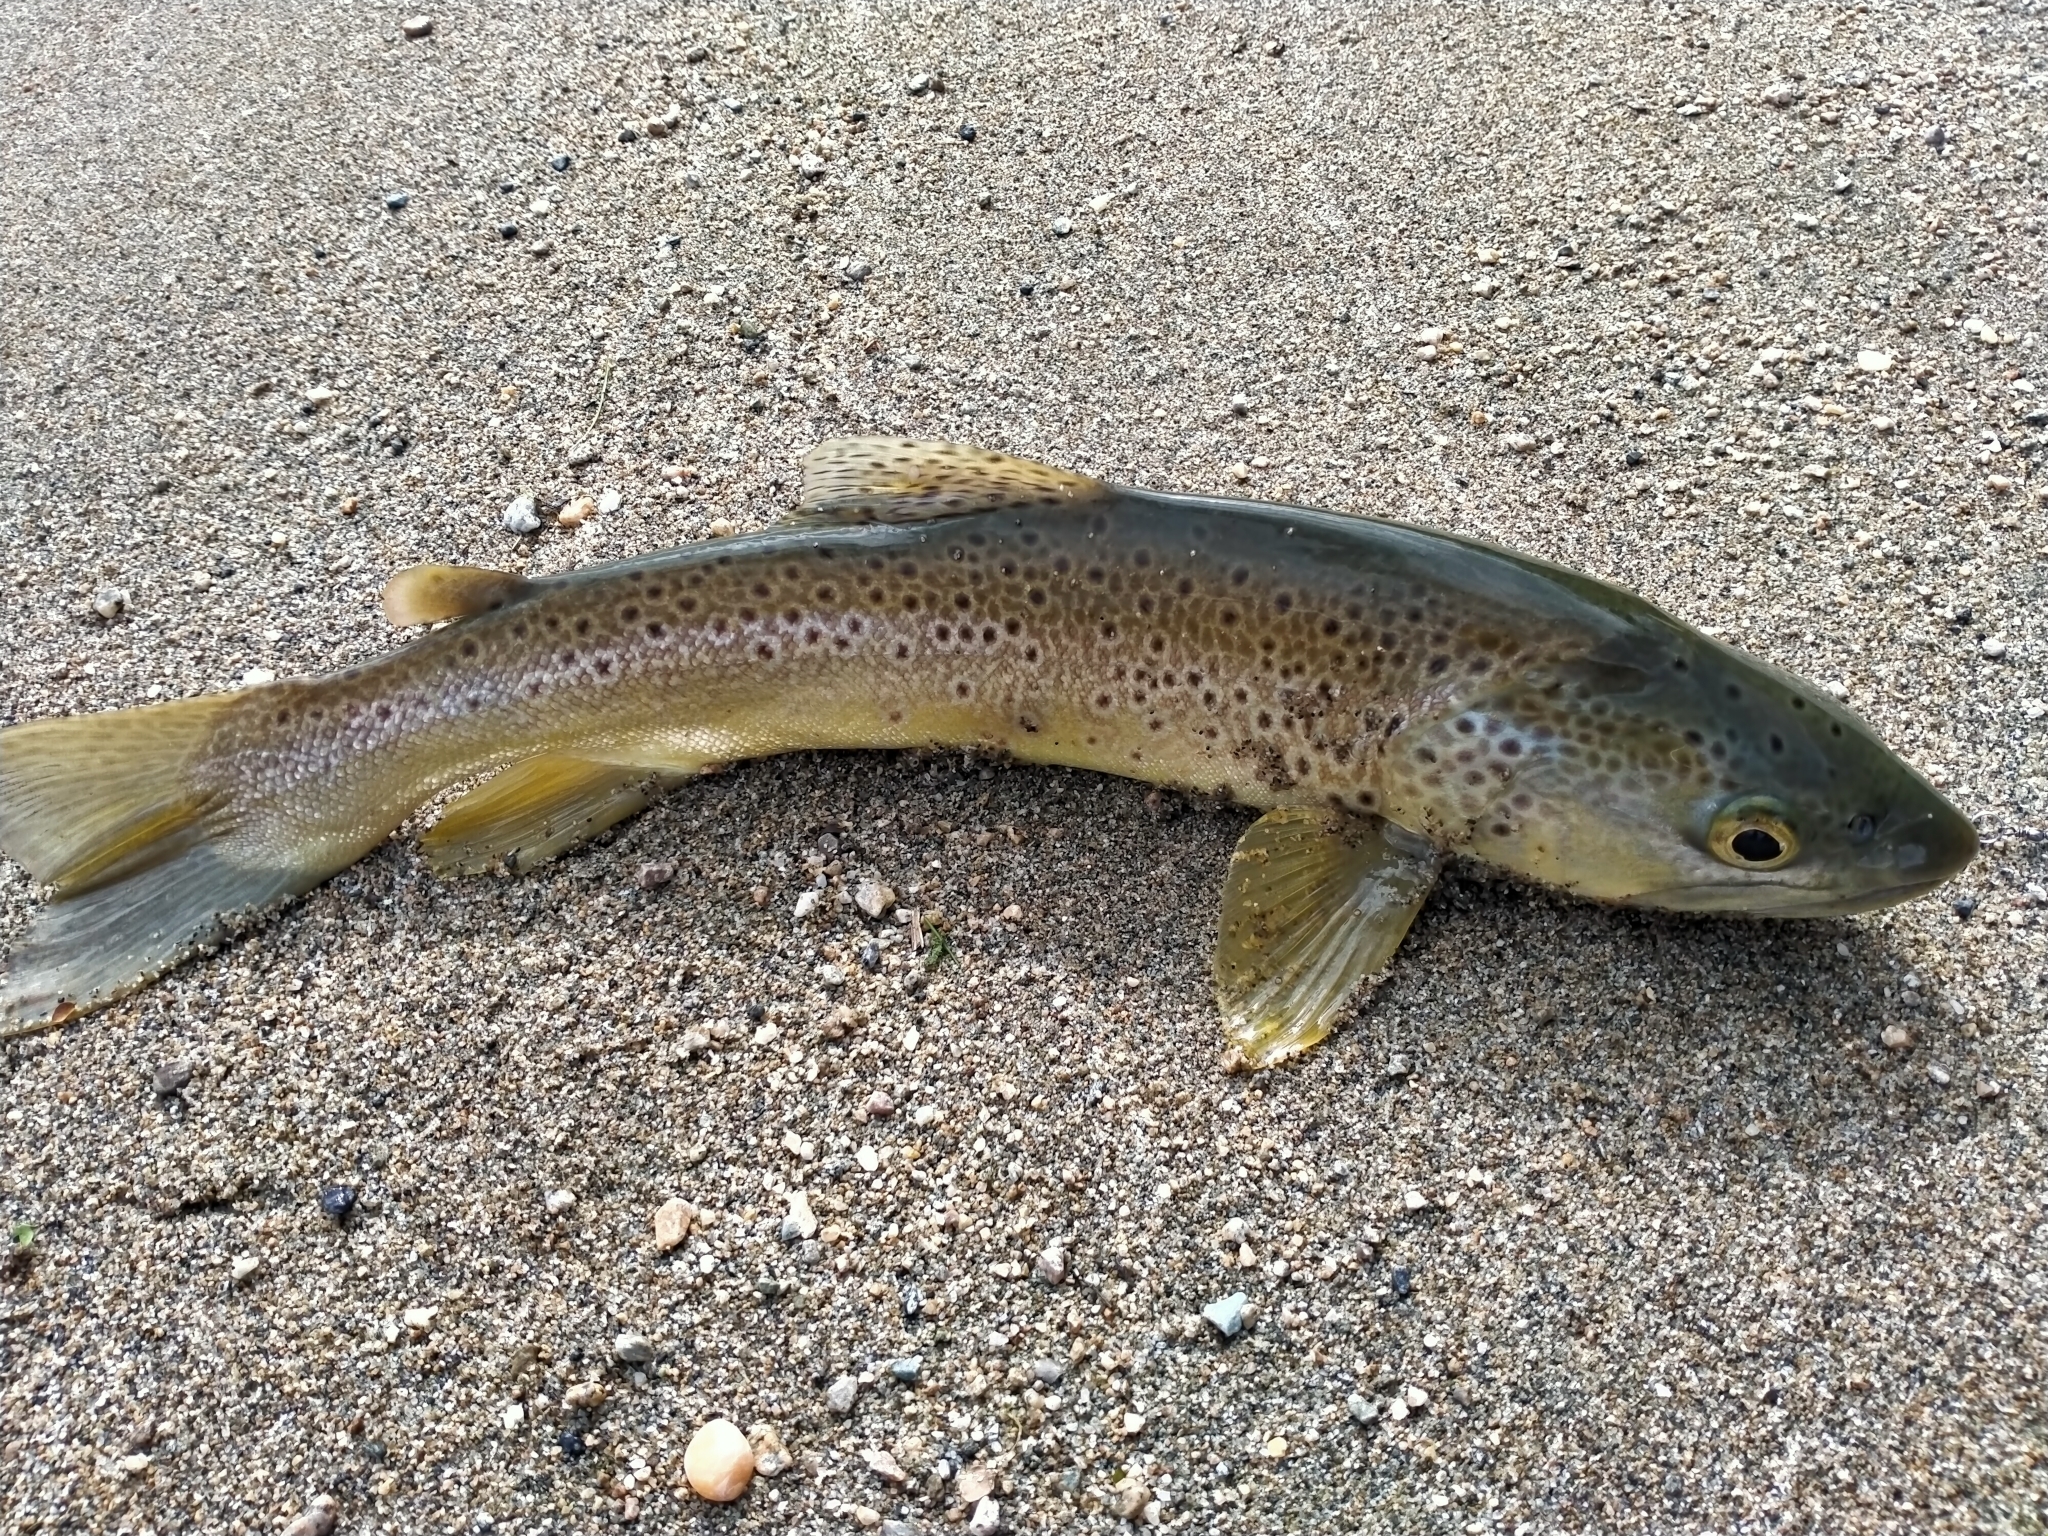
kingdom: Animalia
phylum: Chordata
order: Salmoniformes
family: Salmonidae
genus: Salmo
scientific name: Salmo trutta
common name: Brown trout
